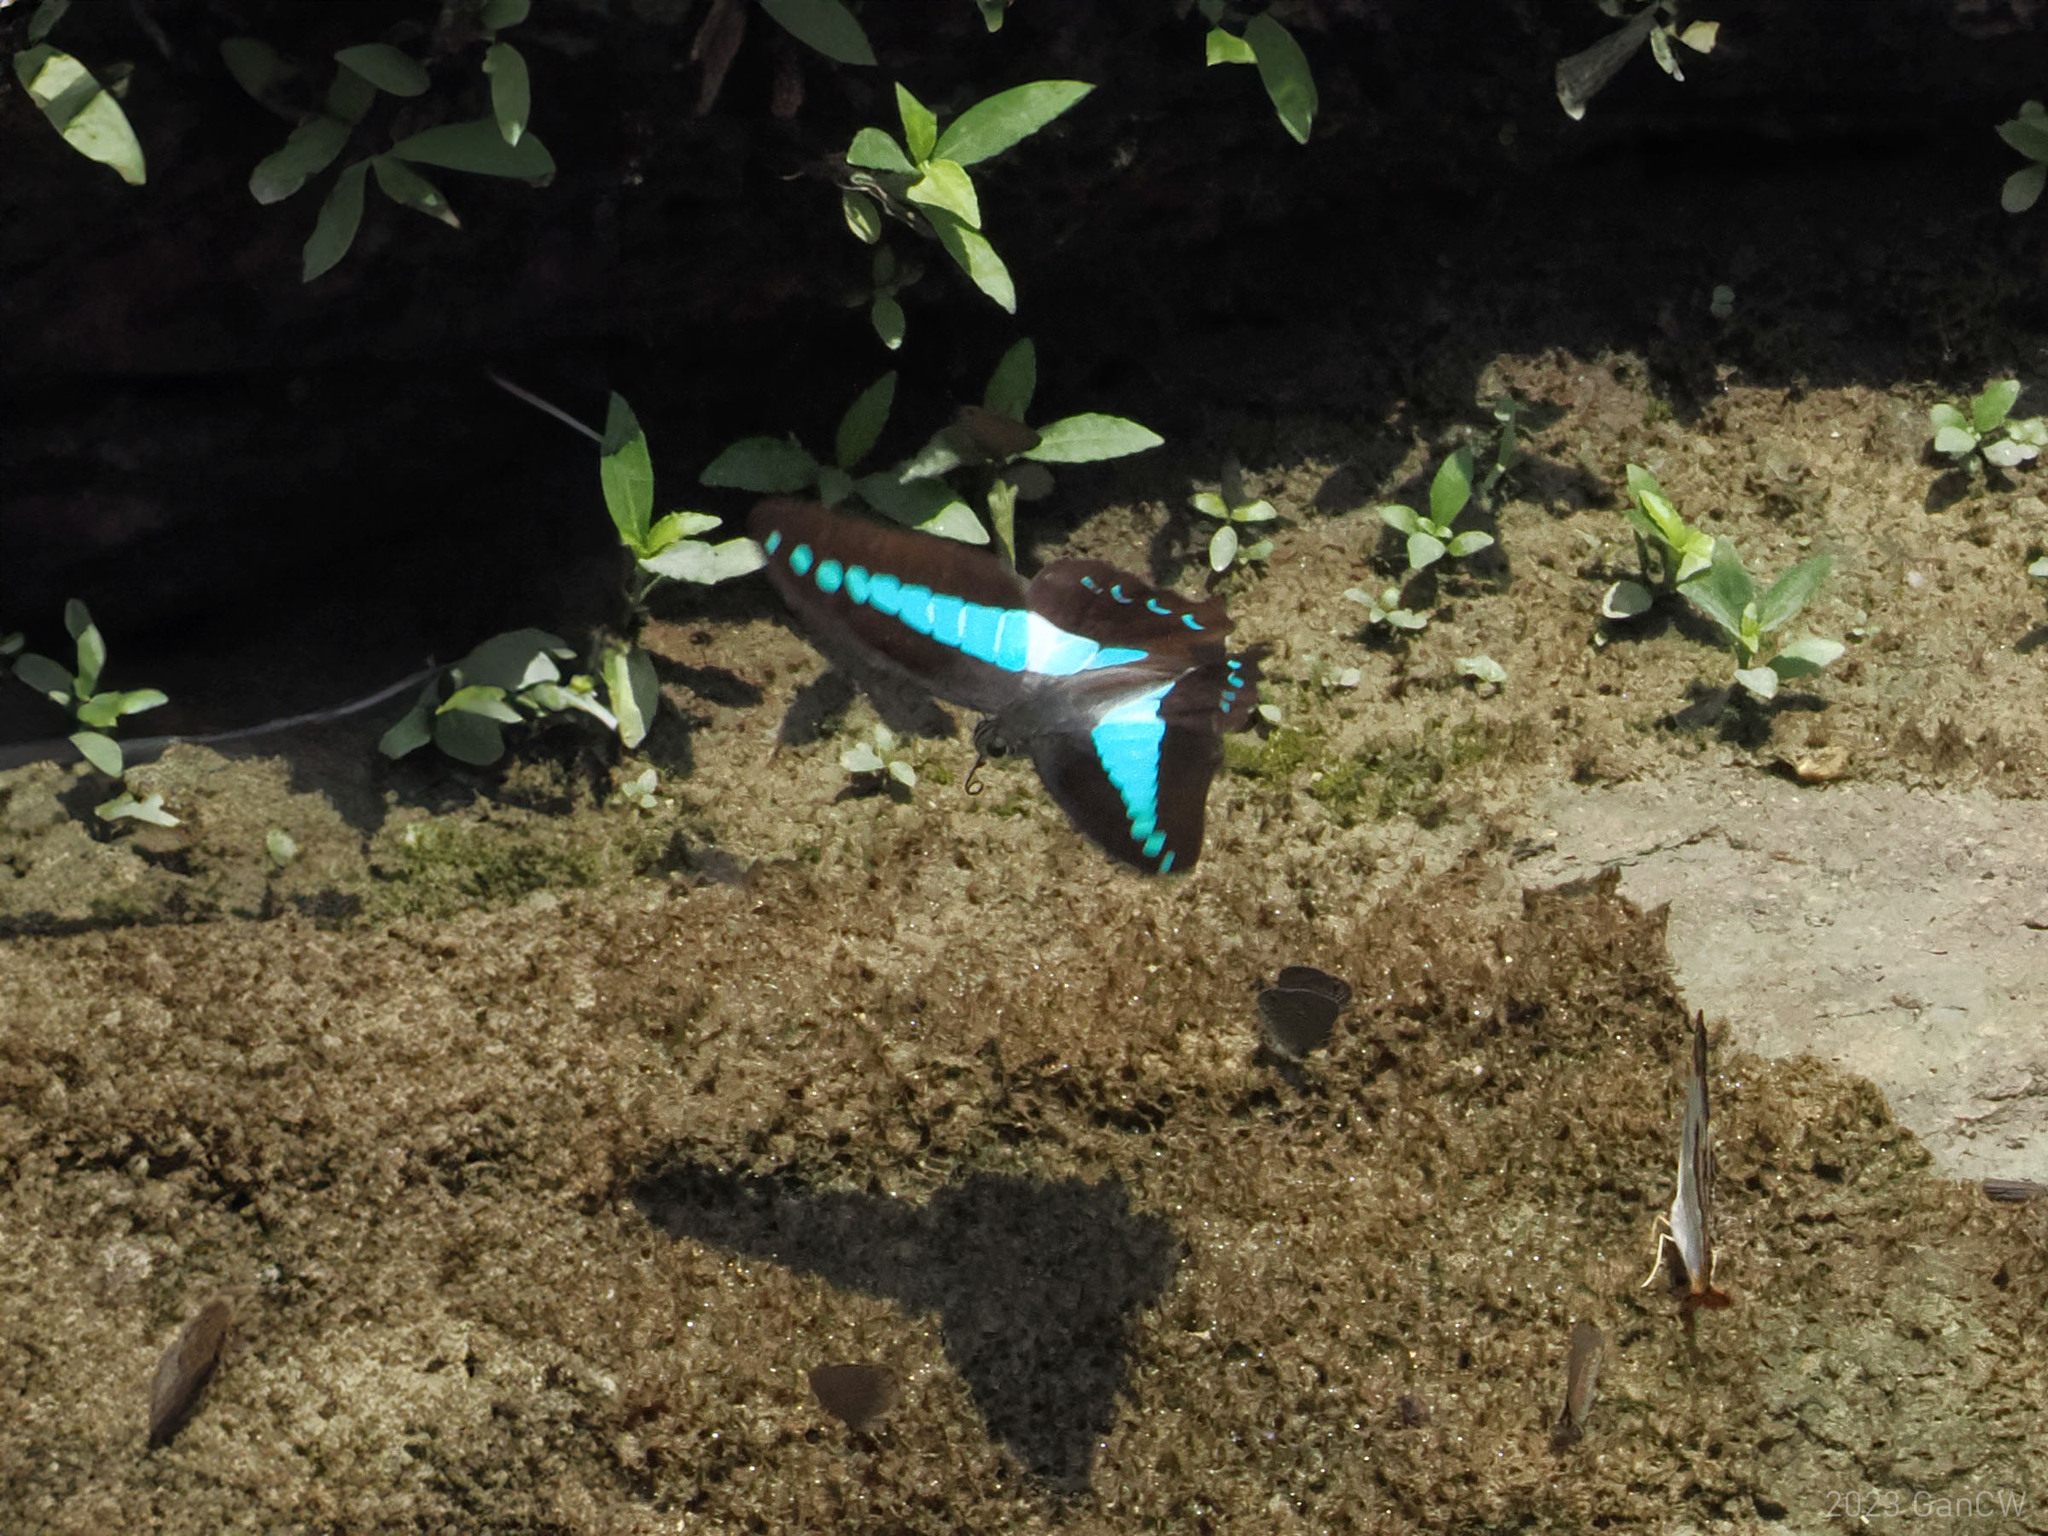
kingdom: Animalia
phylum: Arthropoda
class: Insecta
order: Lepidoptera
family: Papilionidae
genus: Graphium
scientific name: Graphium
